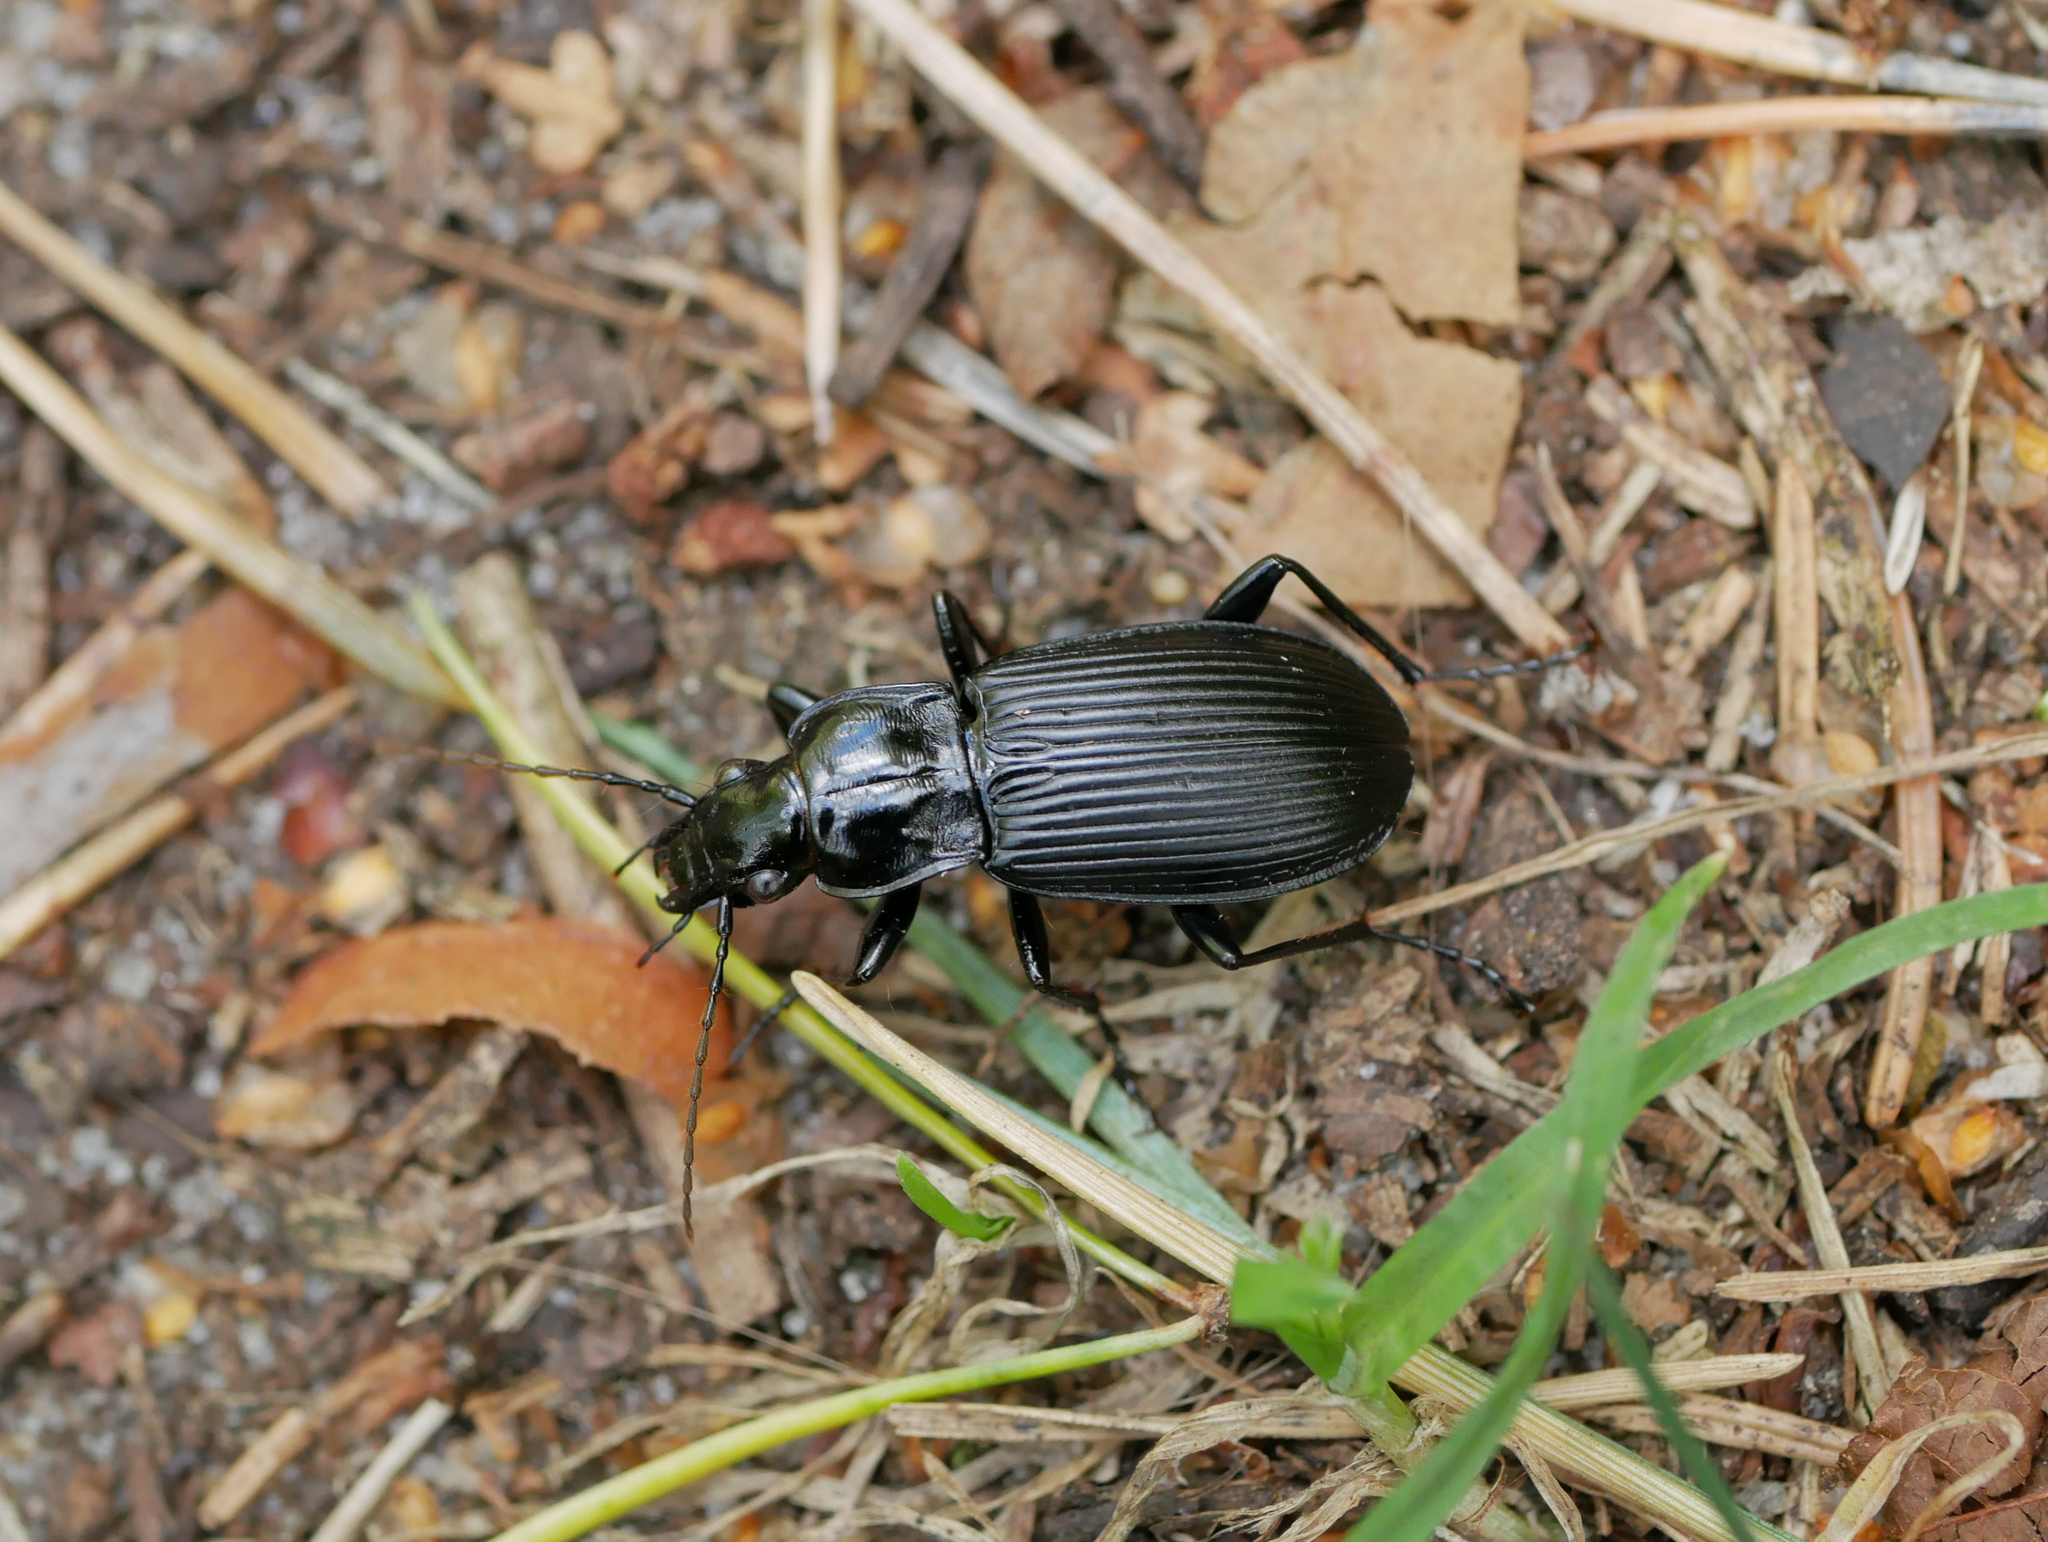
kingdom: Animalia
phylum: Arthropoda
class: Insecta
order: Coleoptera
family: Carabidae
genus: Pterostichus
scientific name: Pterostichus niger
